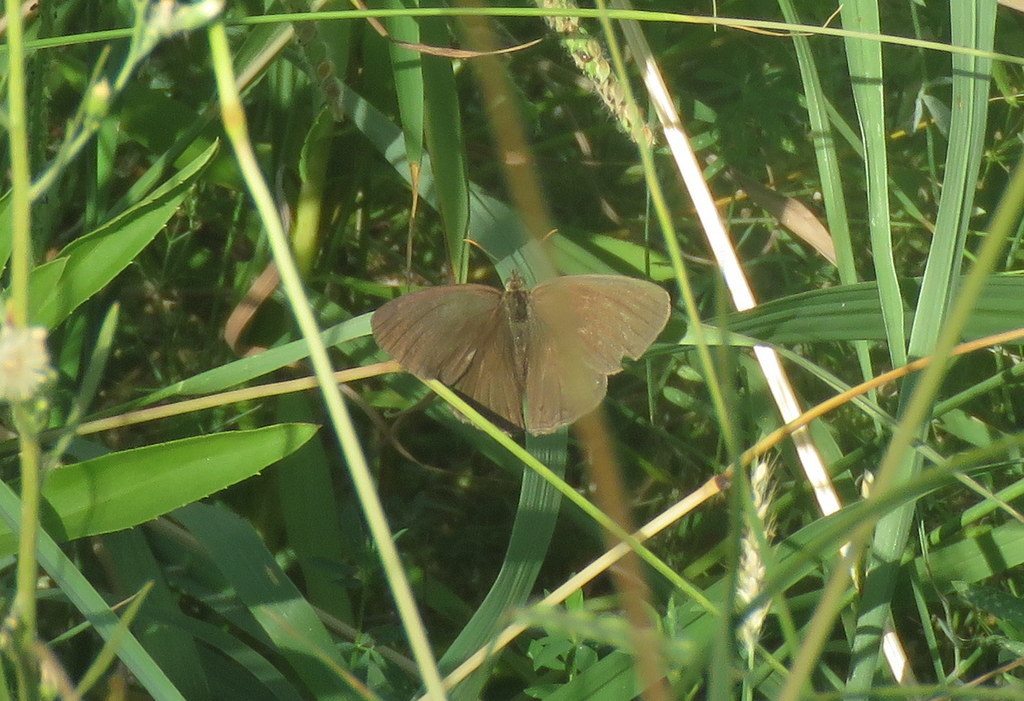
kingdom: Animalia
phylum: Arthropoda
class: Insecta
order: Lepidoptera
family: Nymphalidae
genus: Euptychiina
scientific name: Euptychiina
